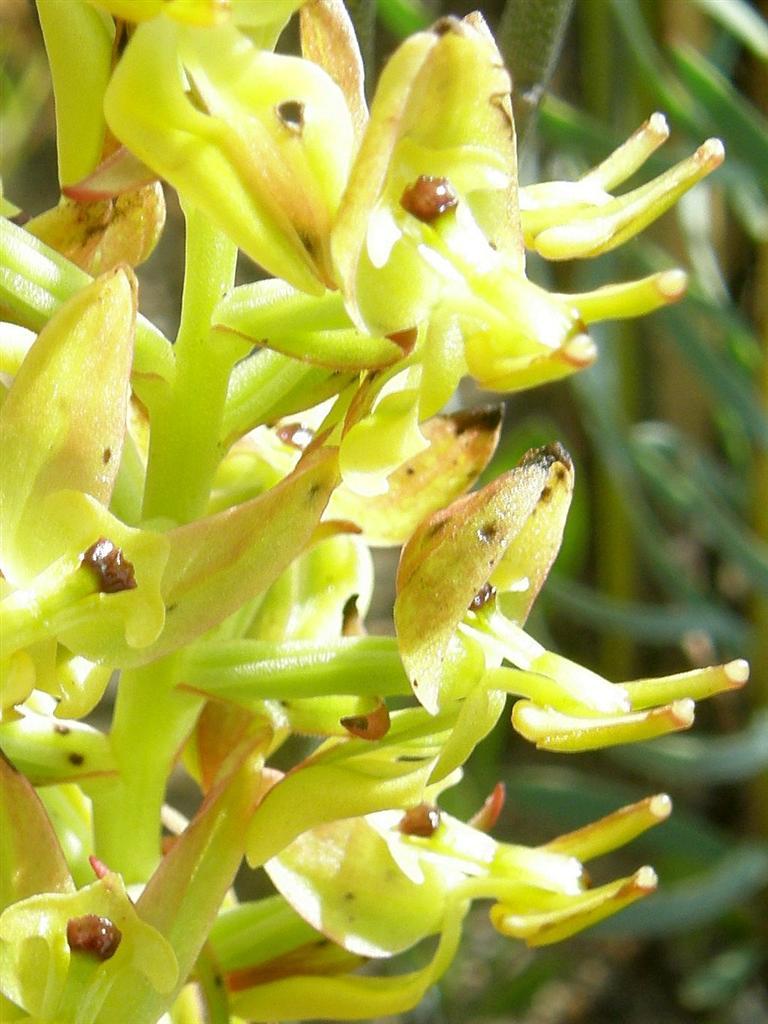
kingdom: Plantae
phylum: Tracheophyta
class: Liliopsida
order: Asparagales
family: Orchidaceae
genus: Ceratandra
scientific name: Ceratandra atrata
